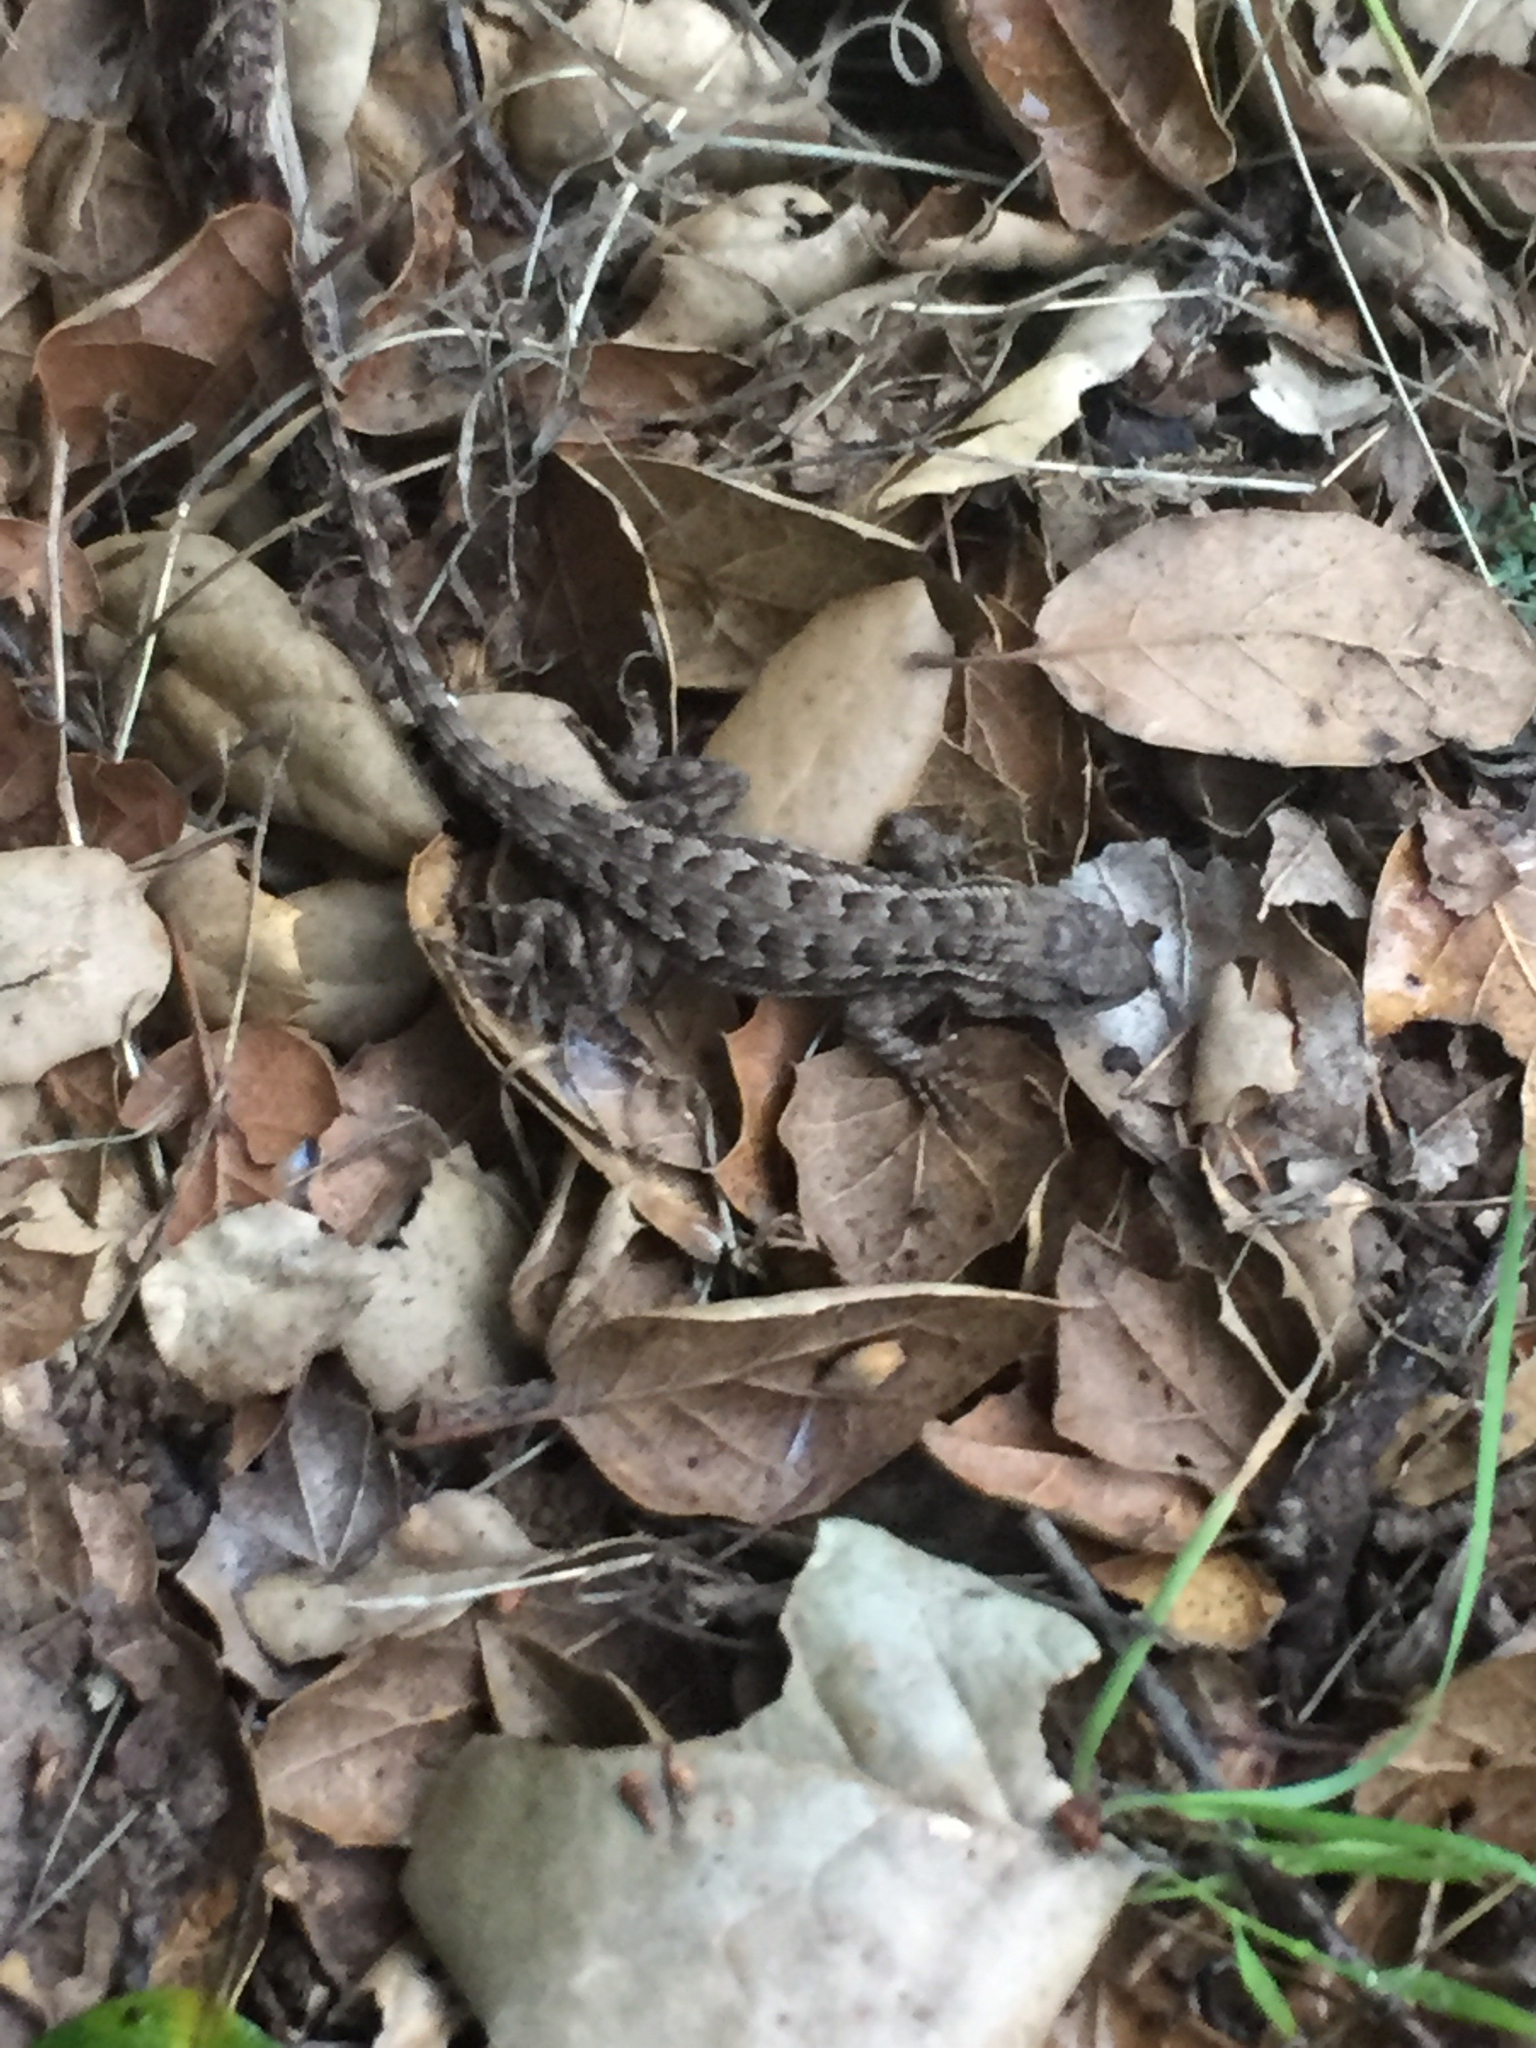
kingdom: Animalia
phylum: Chordata
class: Squamata
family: Phrynosomatidae
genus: Sceloporus
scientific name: Sceloporus occidentalis
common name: Western fence lizard
